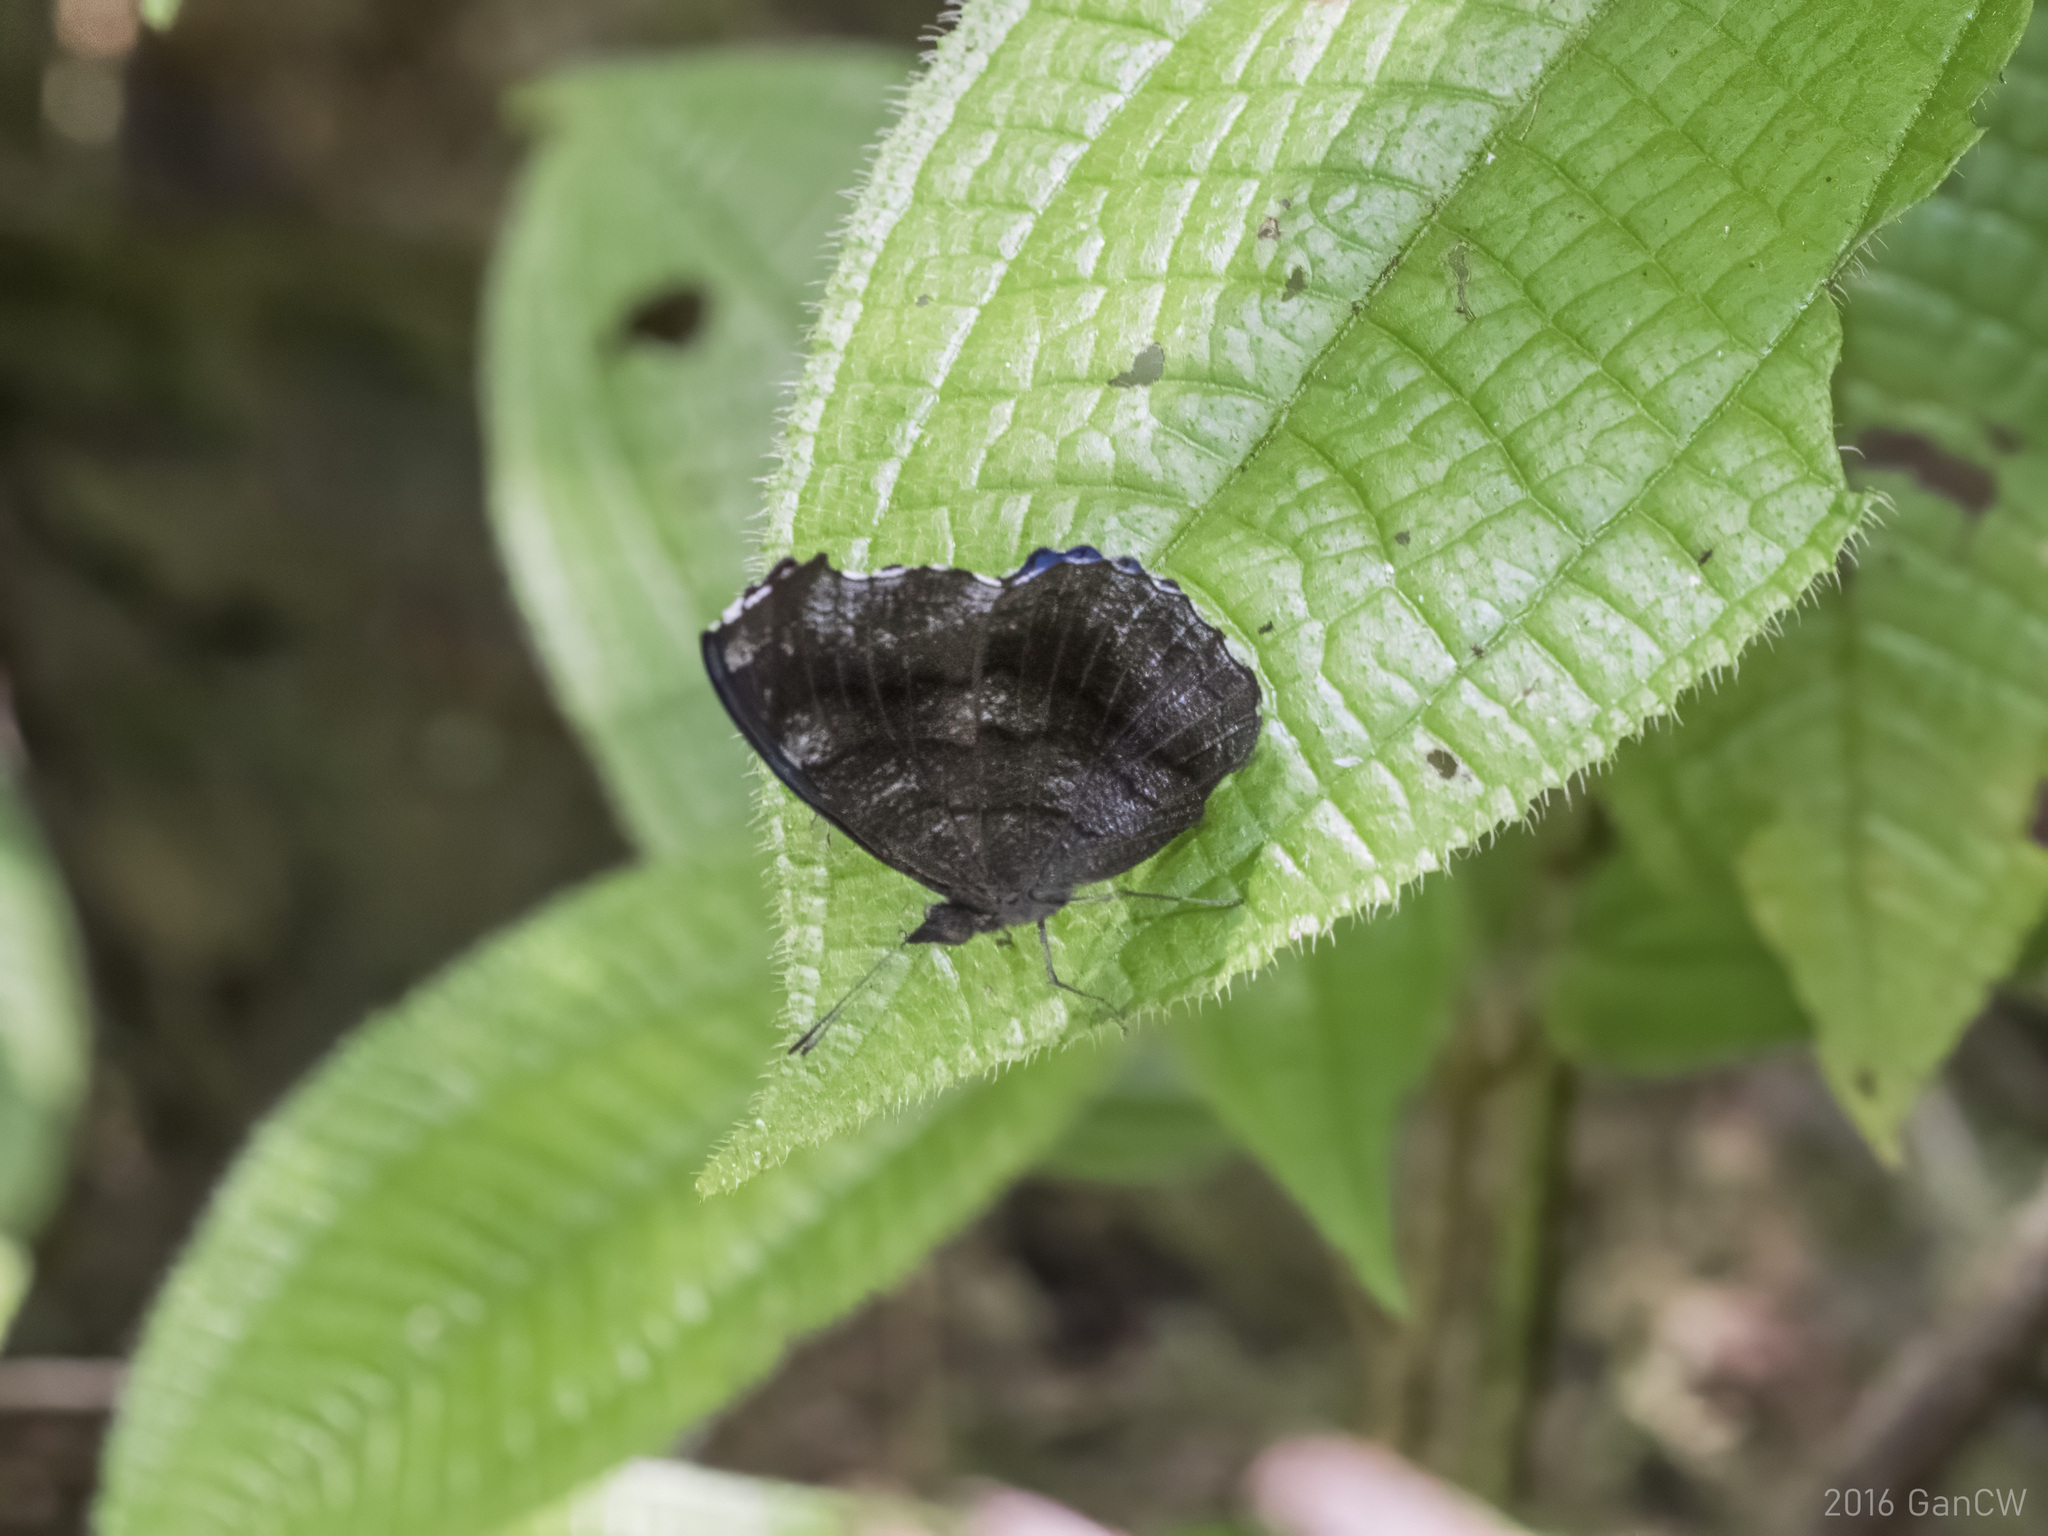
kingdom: Animalia
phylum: Arthropoda
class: Insecta
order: Lepidoptera
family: Nymphalidae
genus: Laringa
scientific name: Laringa castelnaui
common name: Blue dandy
